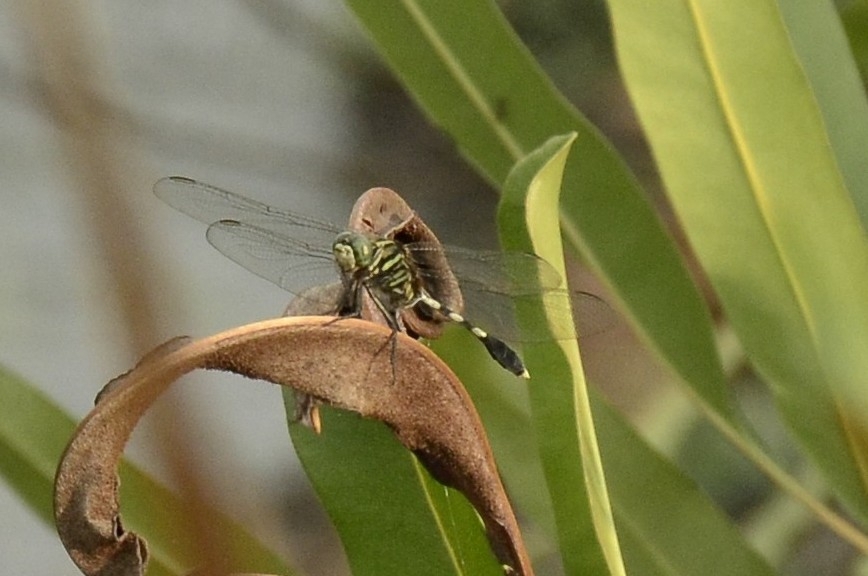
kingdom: Animalia
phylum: Arthropoda
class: Insecta
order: Odonata
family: Libellulidae
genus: Orthetrum
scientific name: Orthetrum sabina
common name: Slender skimmer
